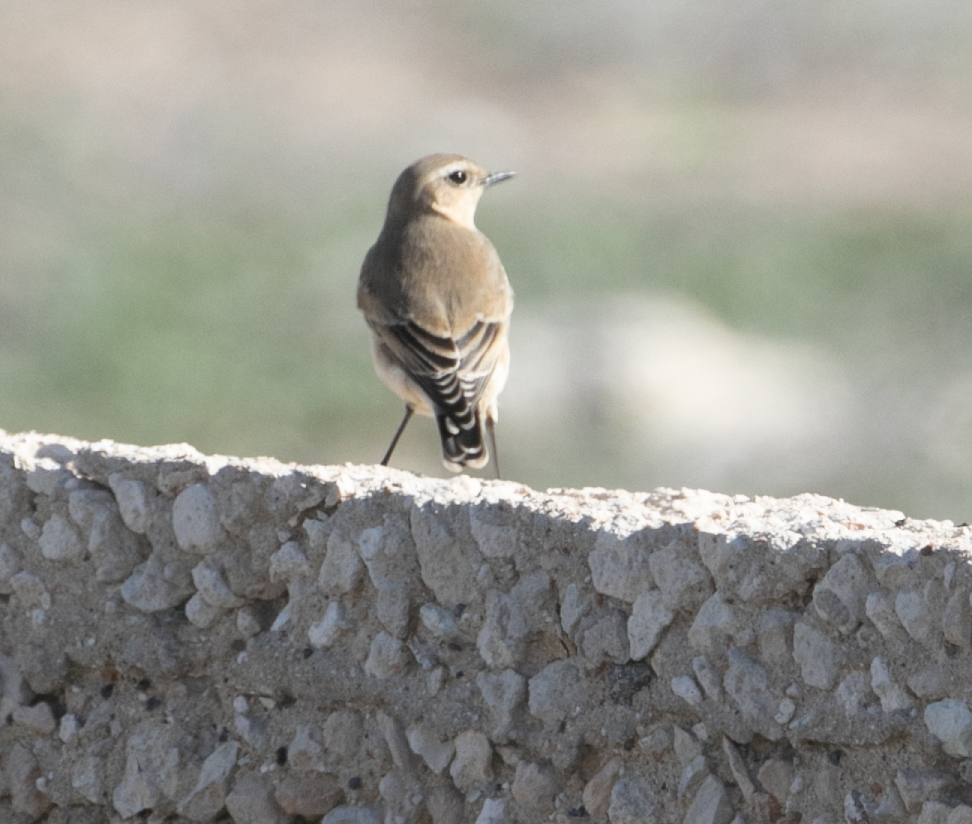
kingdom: Animalia
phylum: Chordata
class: Aves
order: Passeriformes
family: Muscicapidae
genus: Oenanthe
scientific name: Oenanthe oenanthe
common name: Northern wheatear
